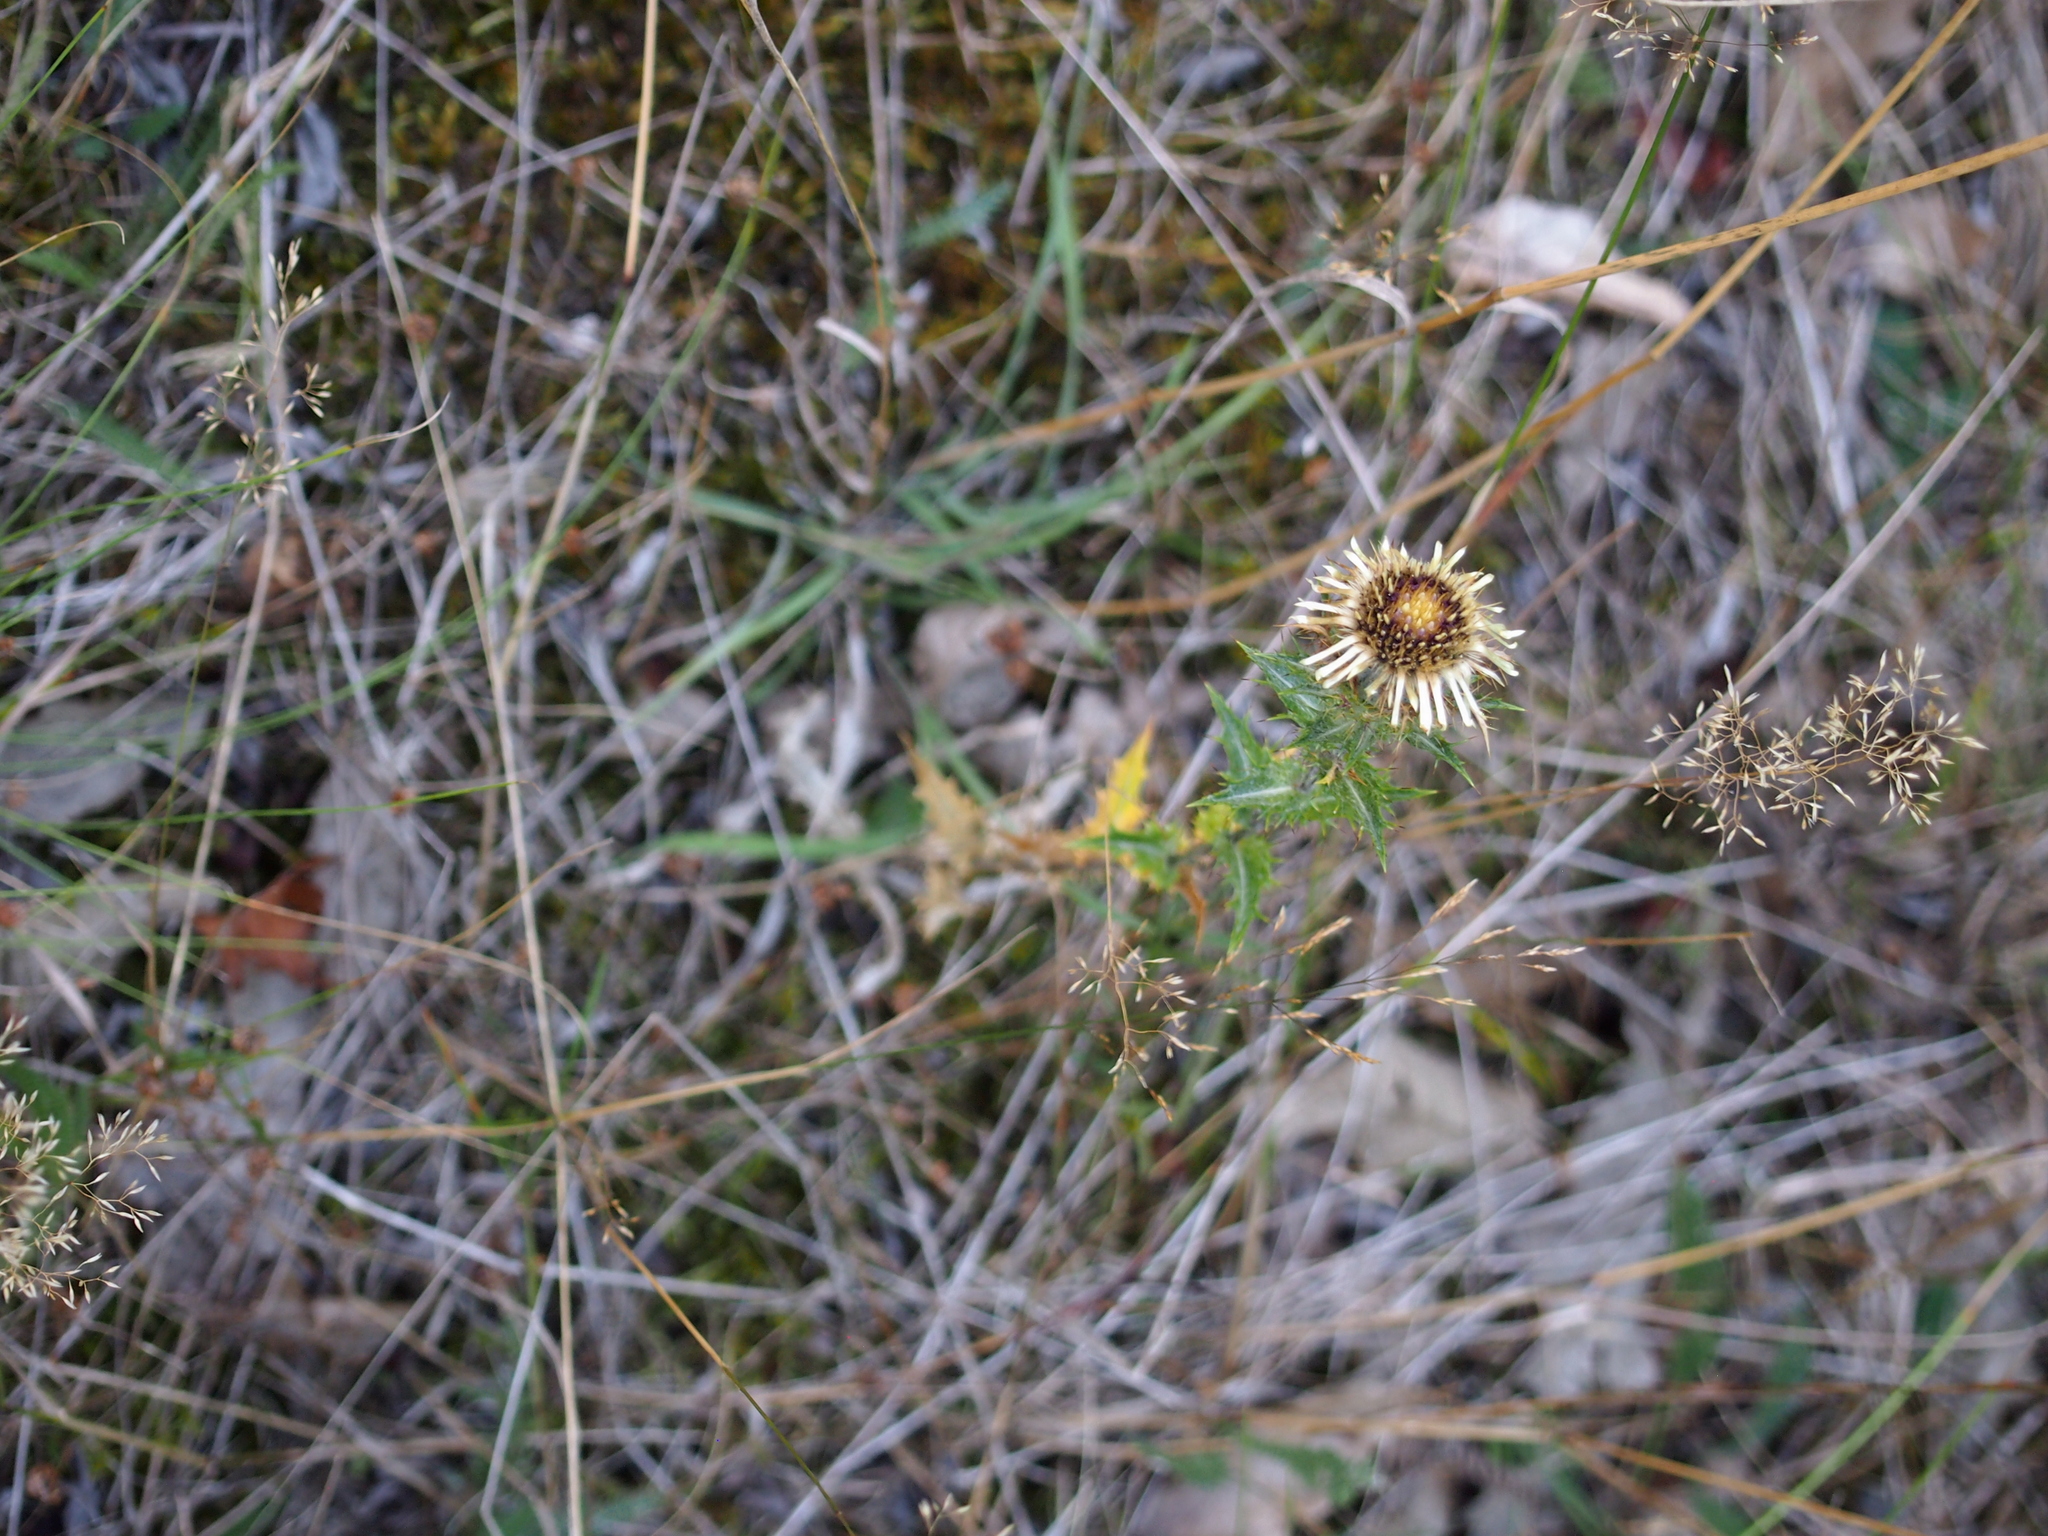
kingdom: Plantae
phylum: Tracheophyta
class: Magnoliopsida
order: Asterales
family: Asteraceae
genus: Carlina
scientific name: Carlina vulgaris
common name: Carline thistle
